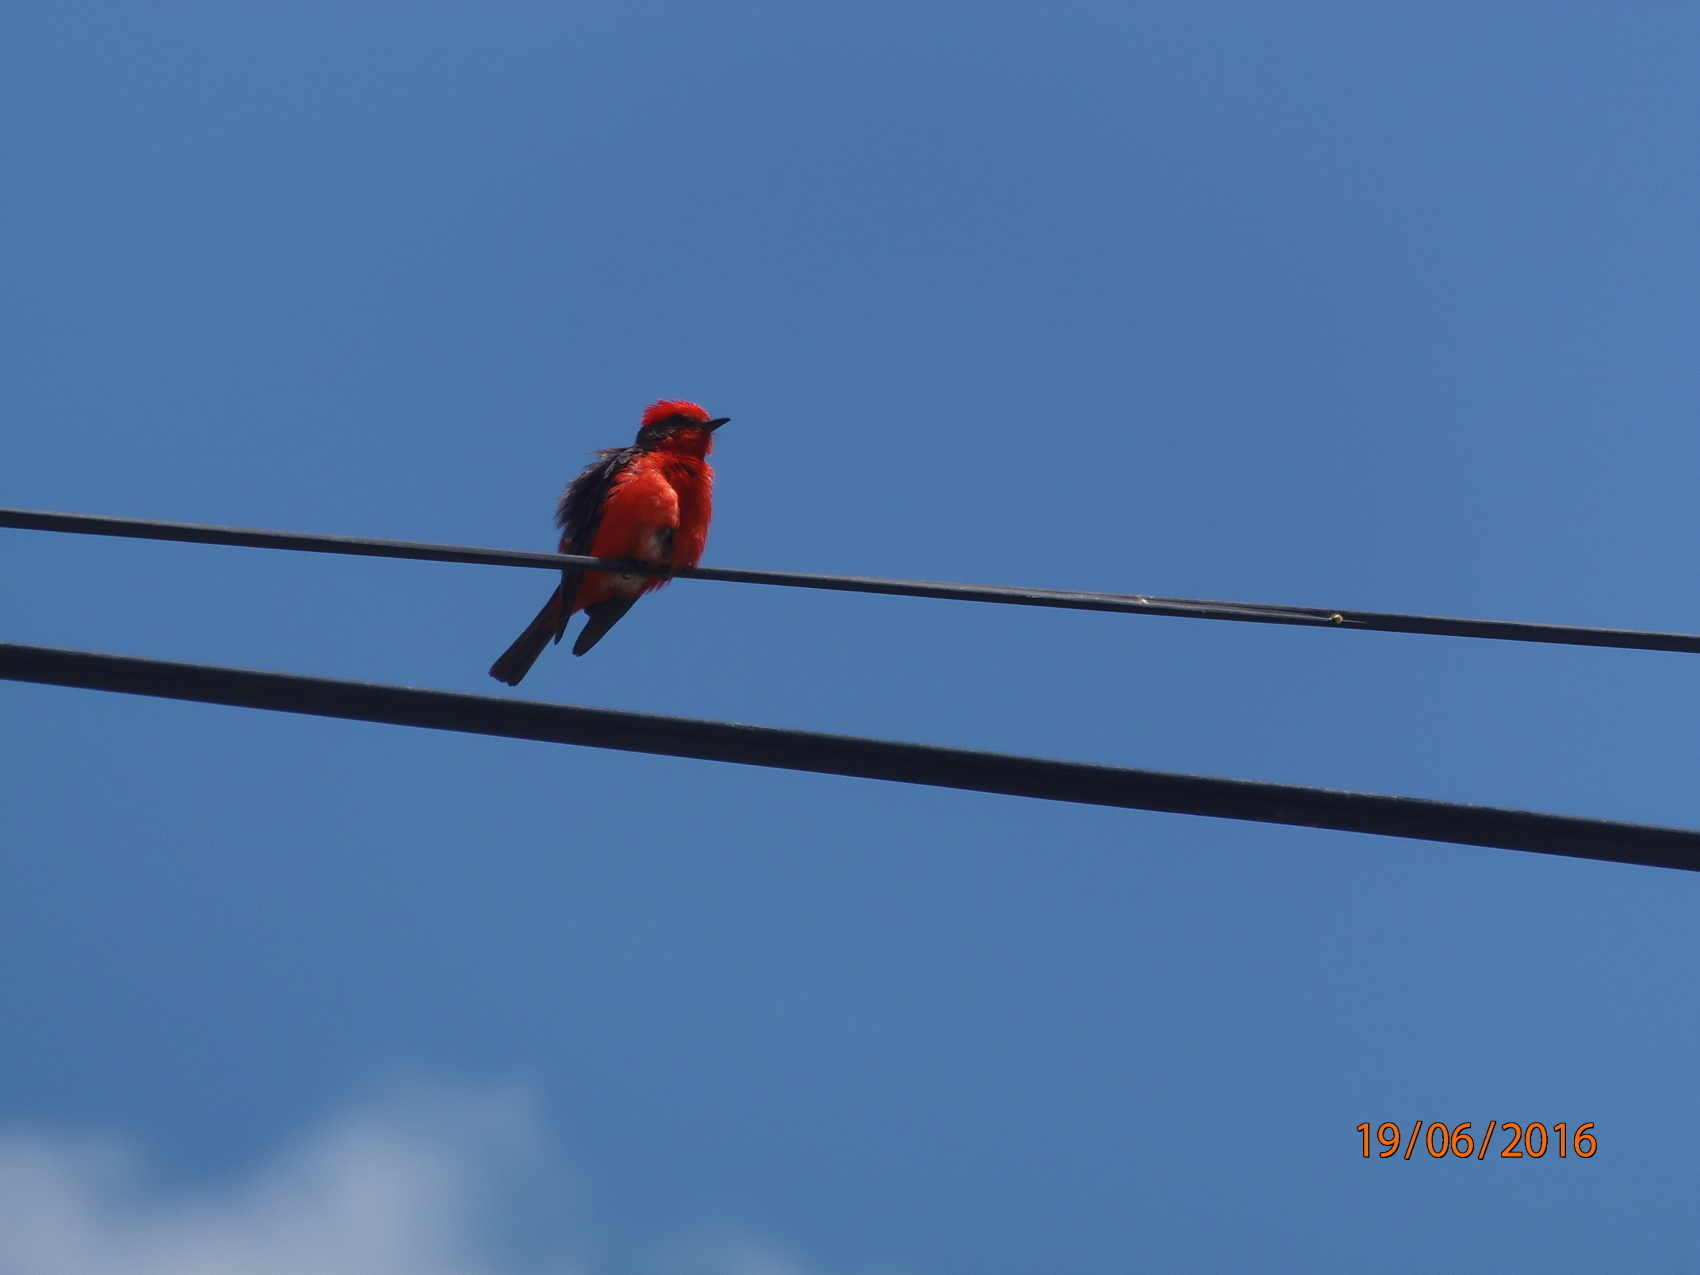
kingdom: Animalia
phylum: Chordata
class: Aves
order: Passeriformes
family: Tyrannidae
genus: Pyrocephalus
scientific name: Pyrocephalus rubinus
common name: Vermilion flycatcher
